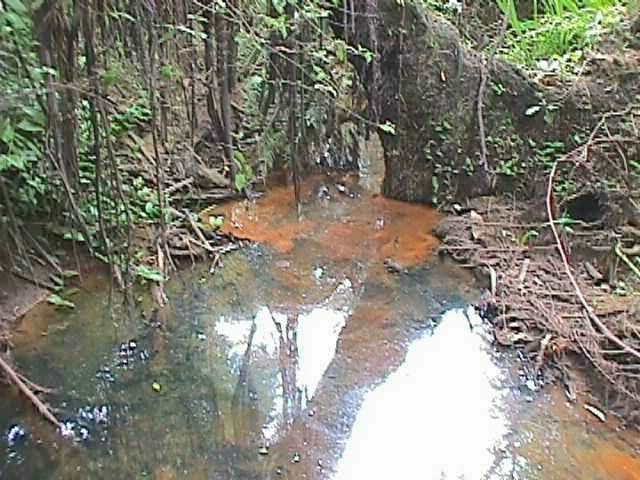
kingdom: Plantae
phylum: Tracheophyta
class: Liliopsida
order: Asparagales
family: Iridaceae
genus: Crocosmia
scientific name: Crocosmia crocosmiiflora
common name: Montbretia
